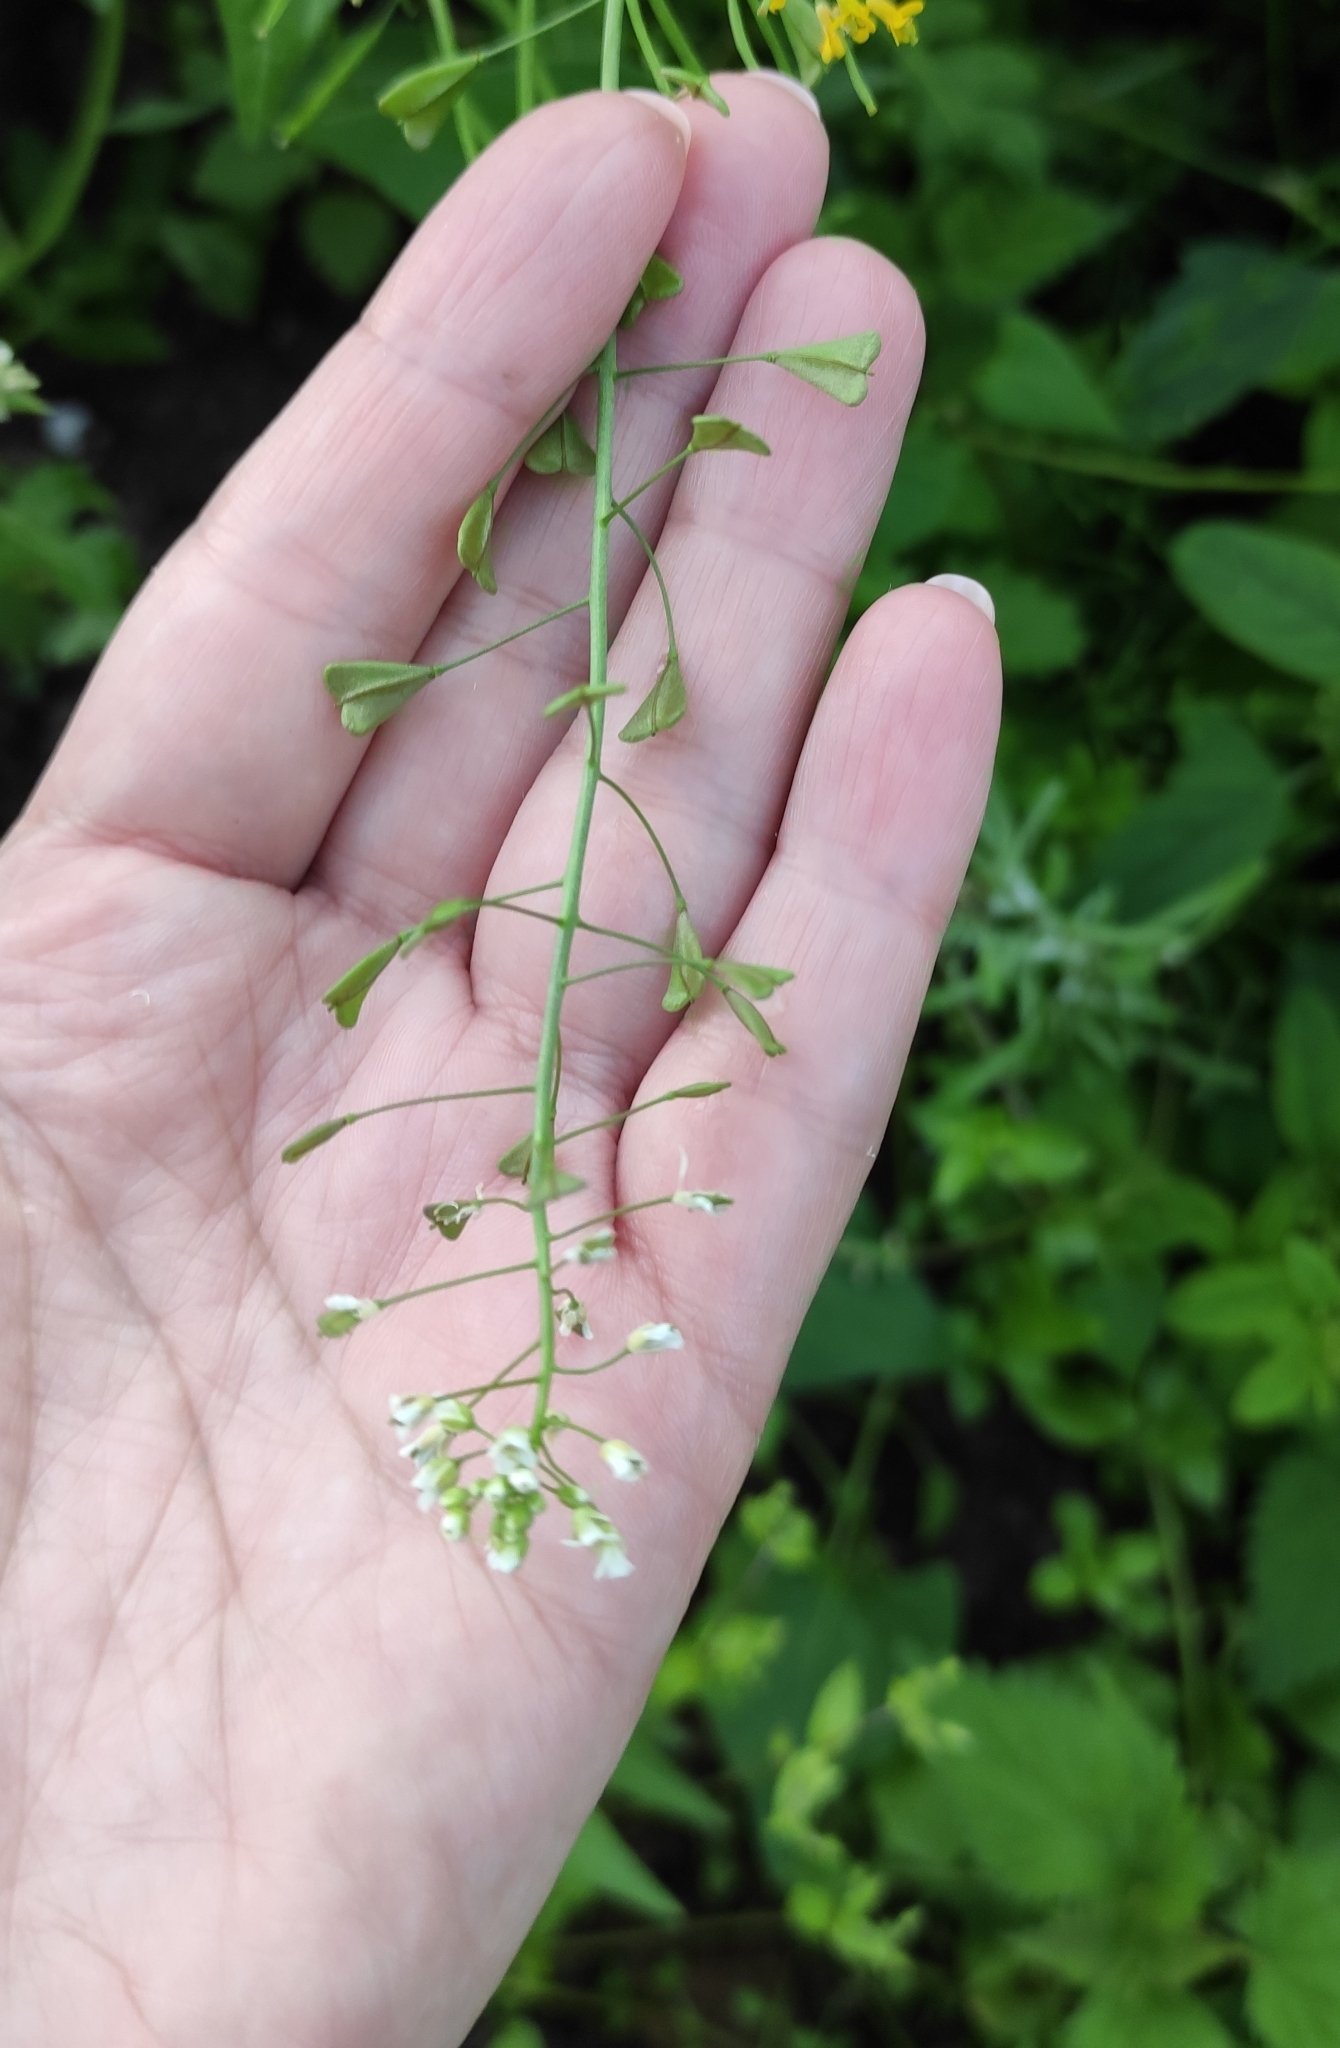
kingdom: Plantae
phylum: Tracheophyta
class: Magnoliopsida
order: Brassicales
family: Brassicaceae
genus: Capsella
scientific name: Capsella bursa-pastoris
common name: Shepherd's purse
